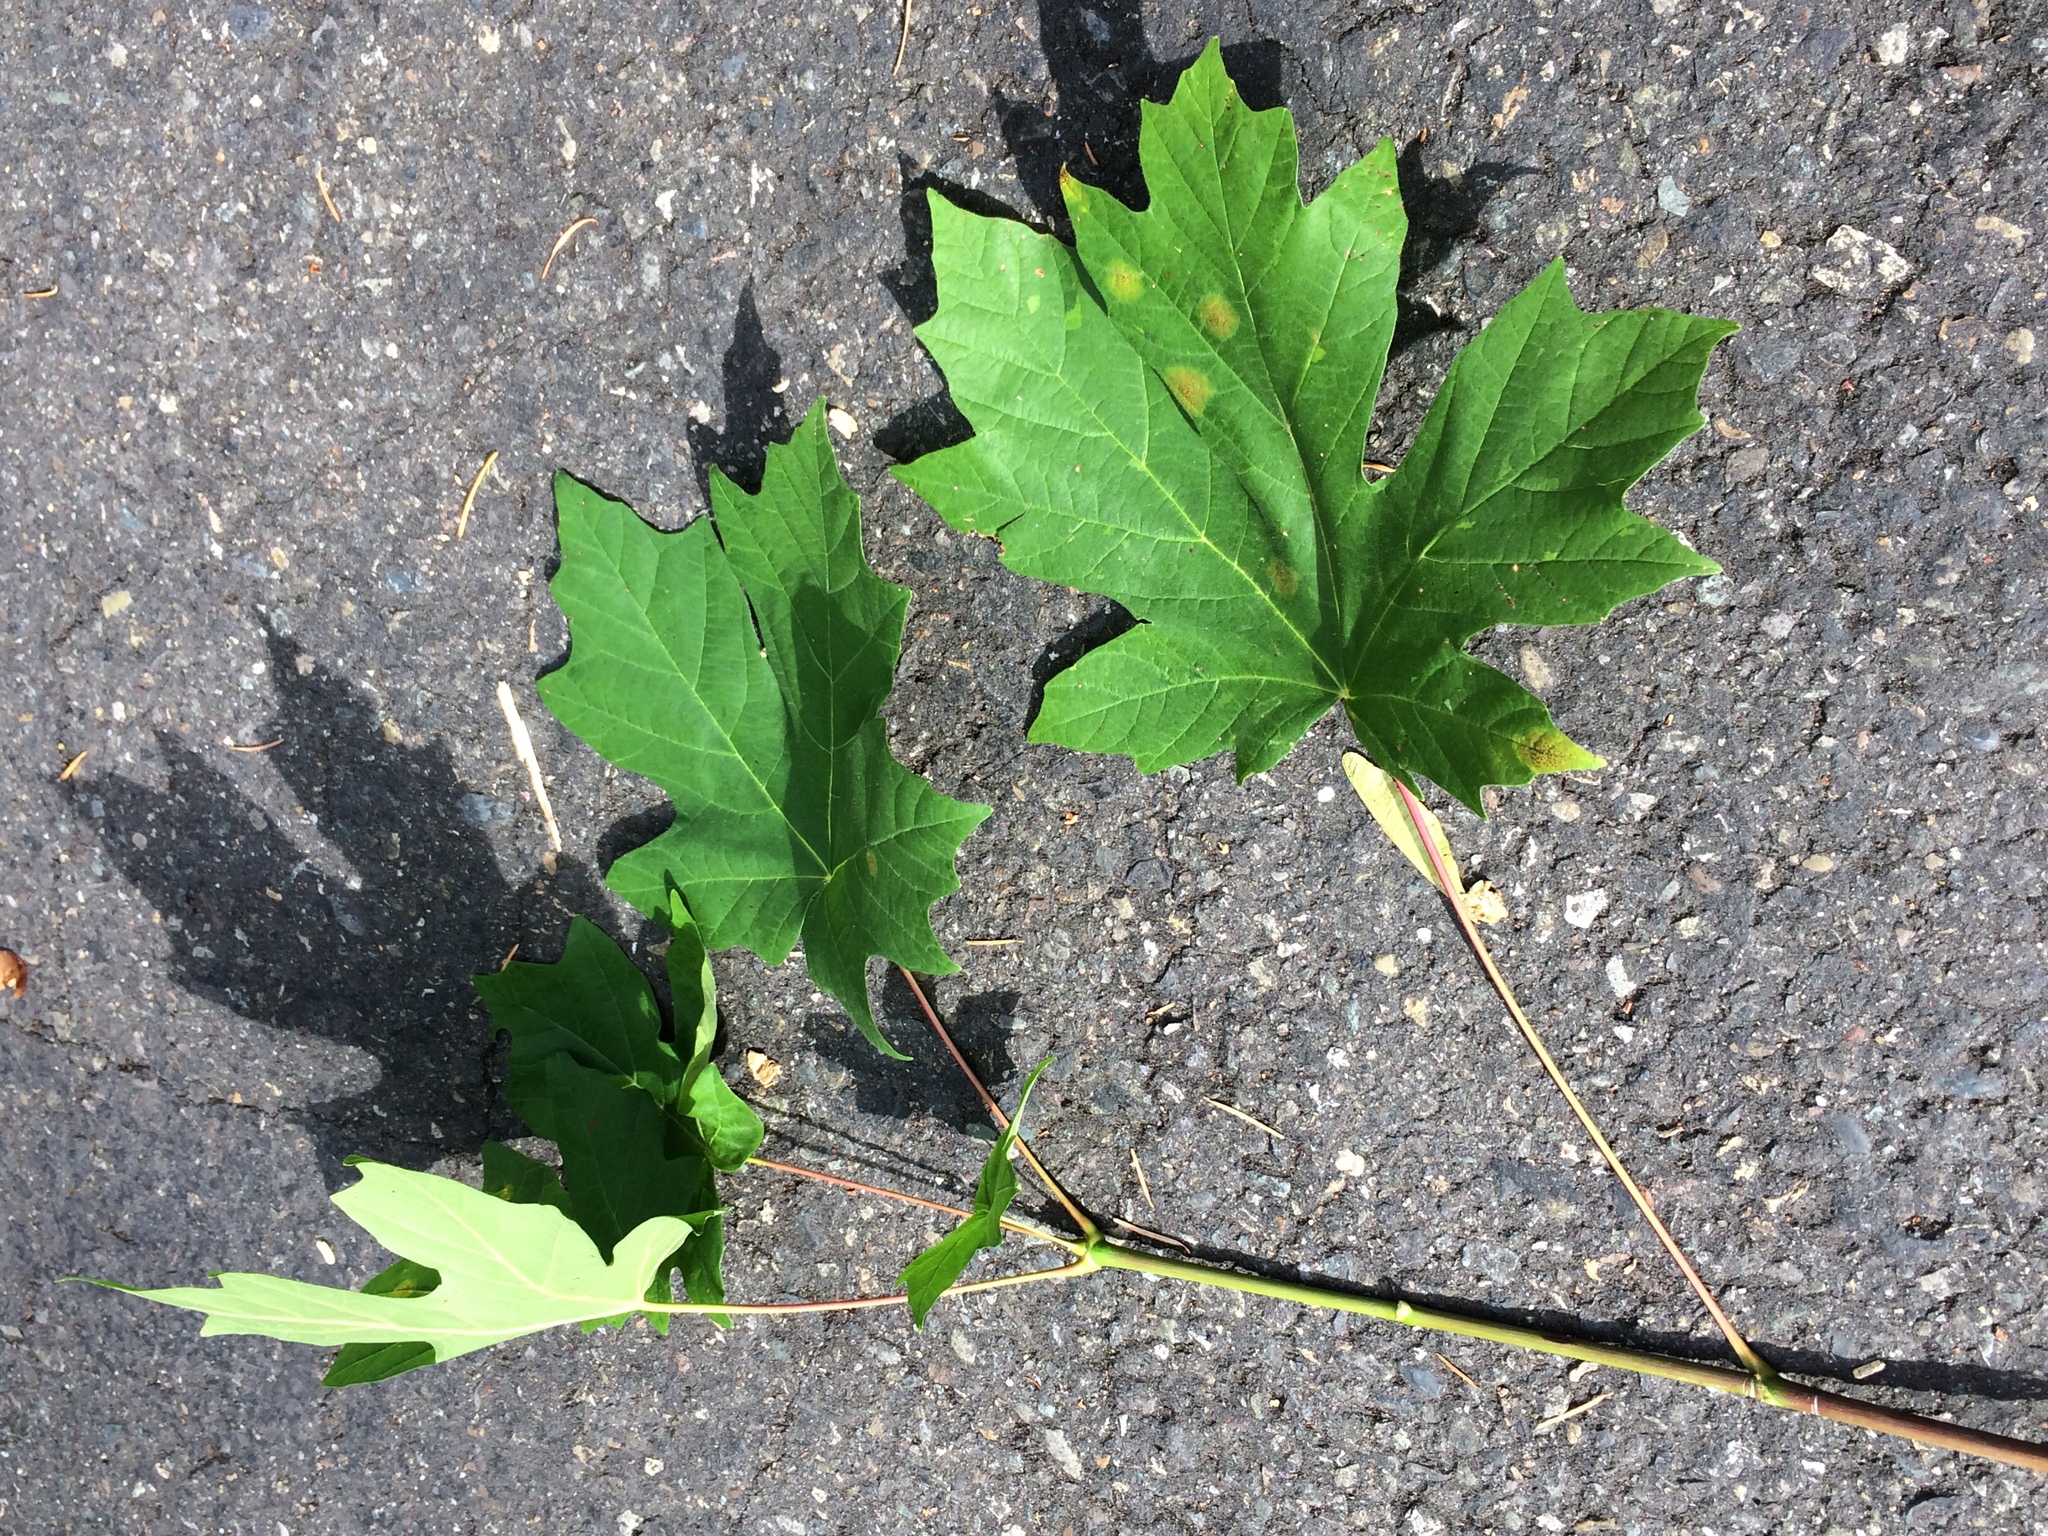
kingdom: Plantae
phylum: Tracheophyta
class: Magnoliopsida
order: Sapindales
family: Sapindaceae
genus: Acer
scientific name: Acer macrophyllum
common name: Oregon maple
